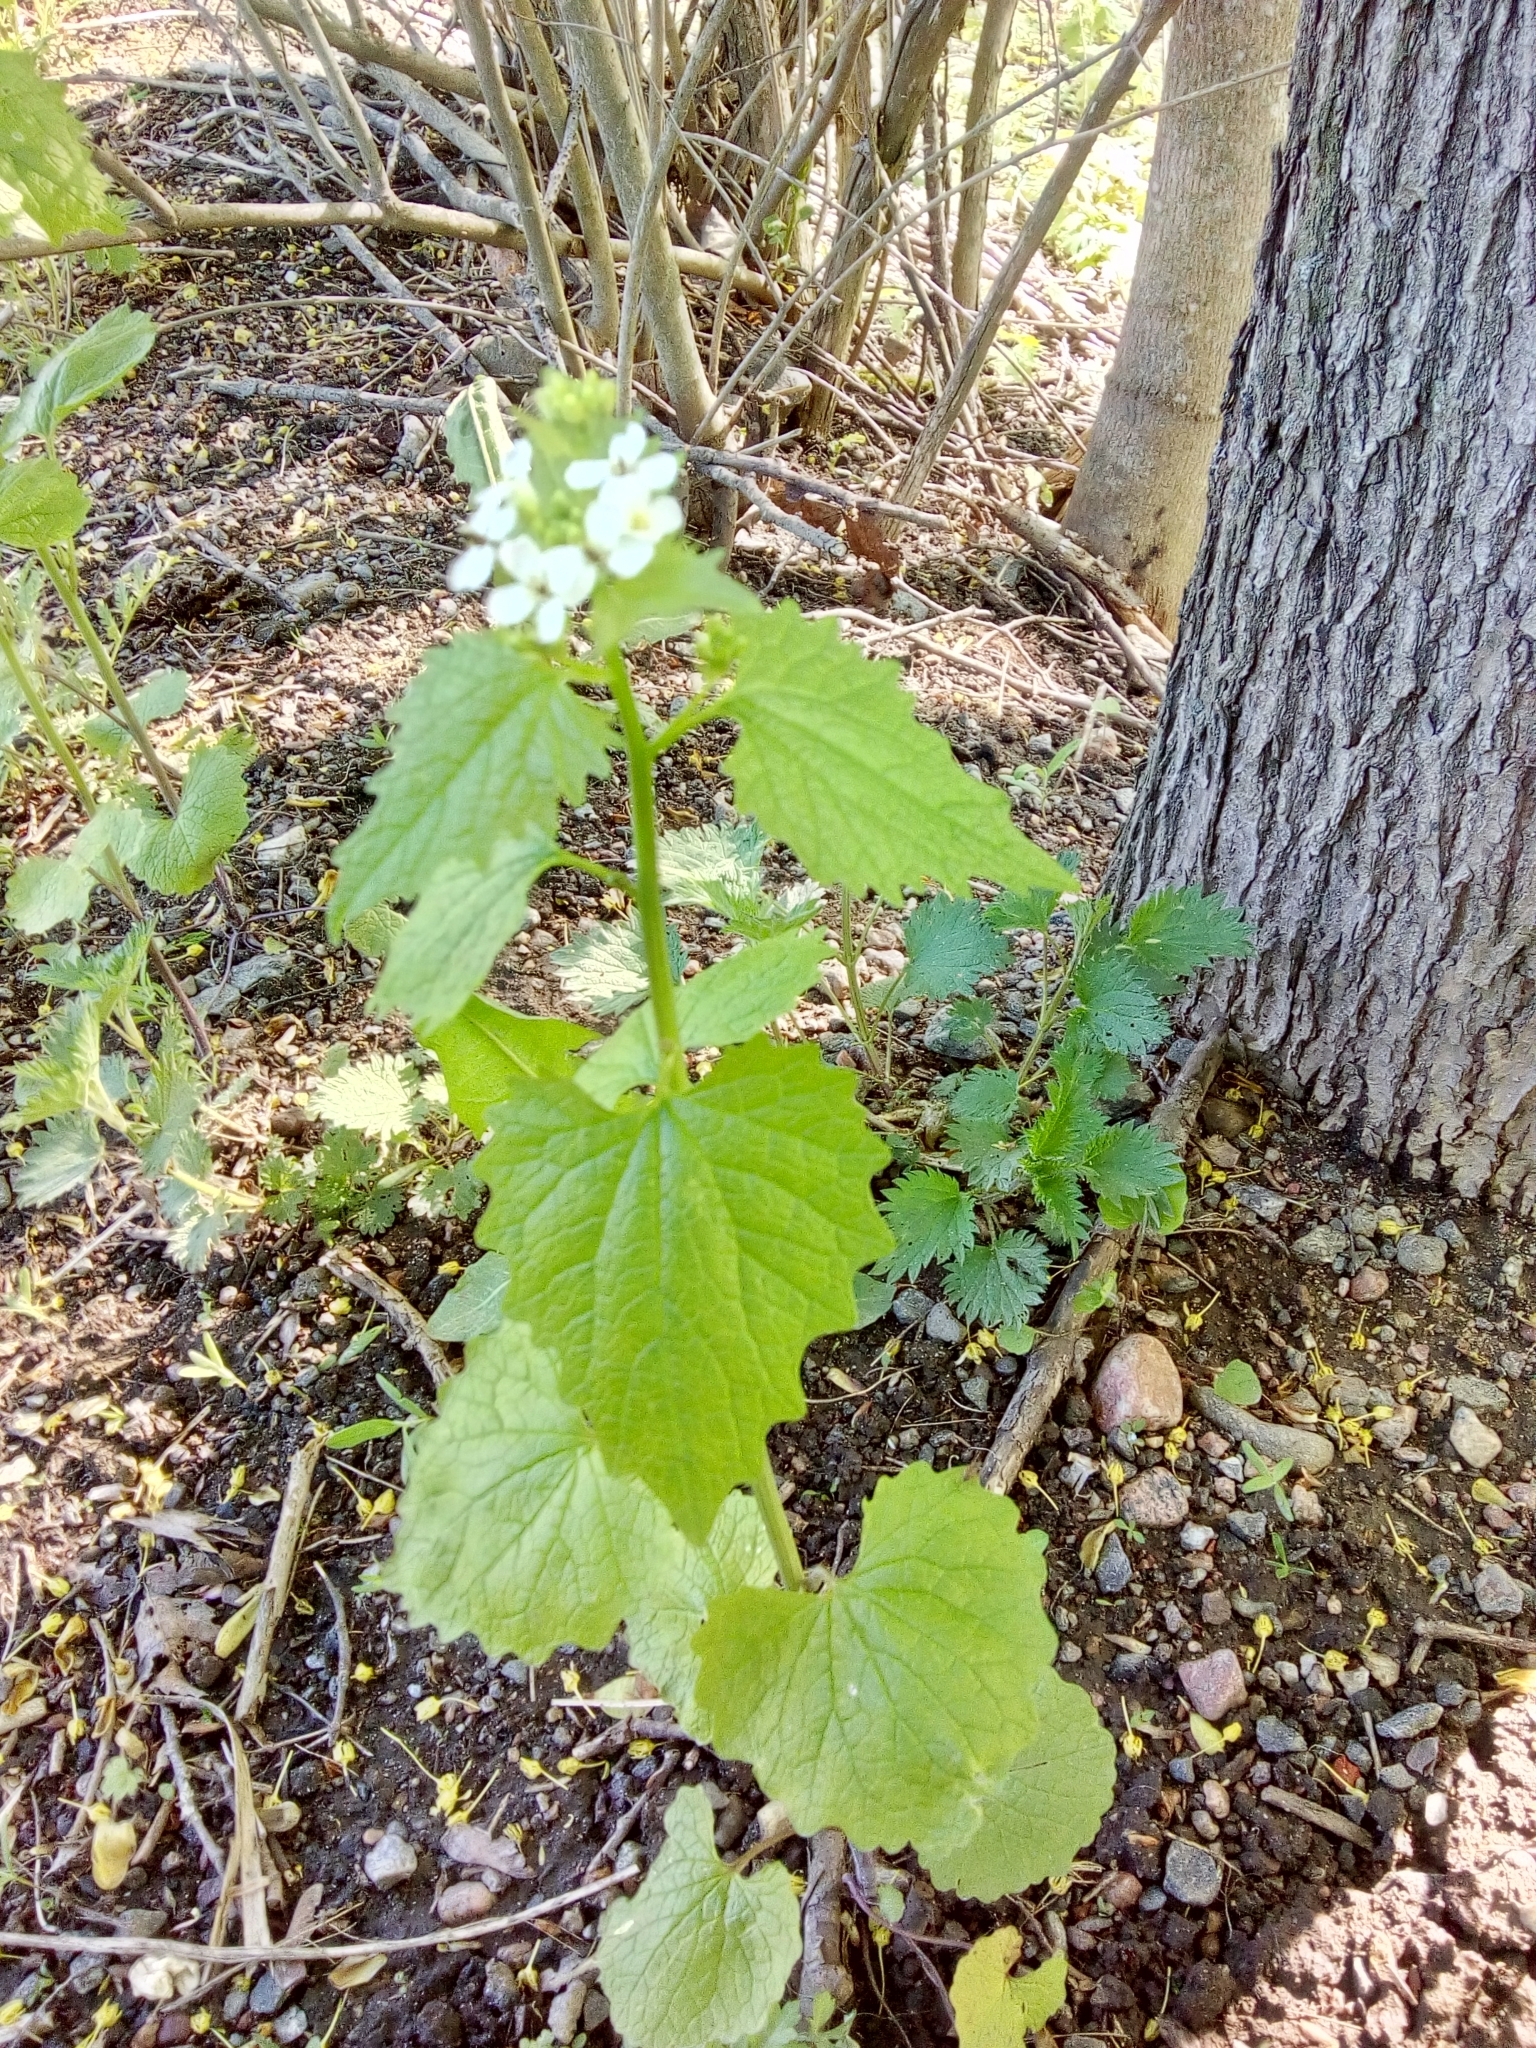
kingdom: Plantae
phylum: Tracheophyta
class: Magnoliopsida
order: Brassicales
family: Brassicaceae
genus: Alliaria
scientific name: Alliaria petiolata
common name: Garlic mustard
